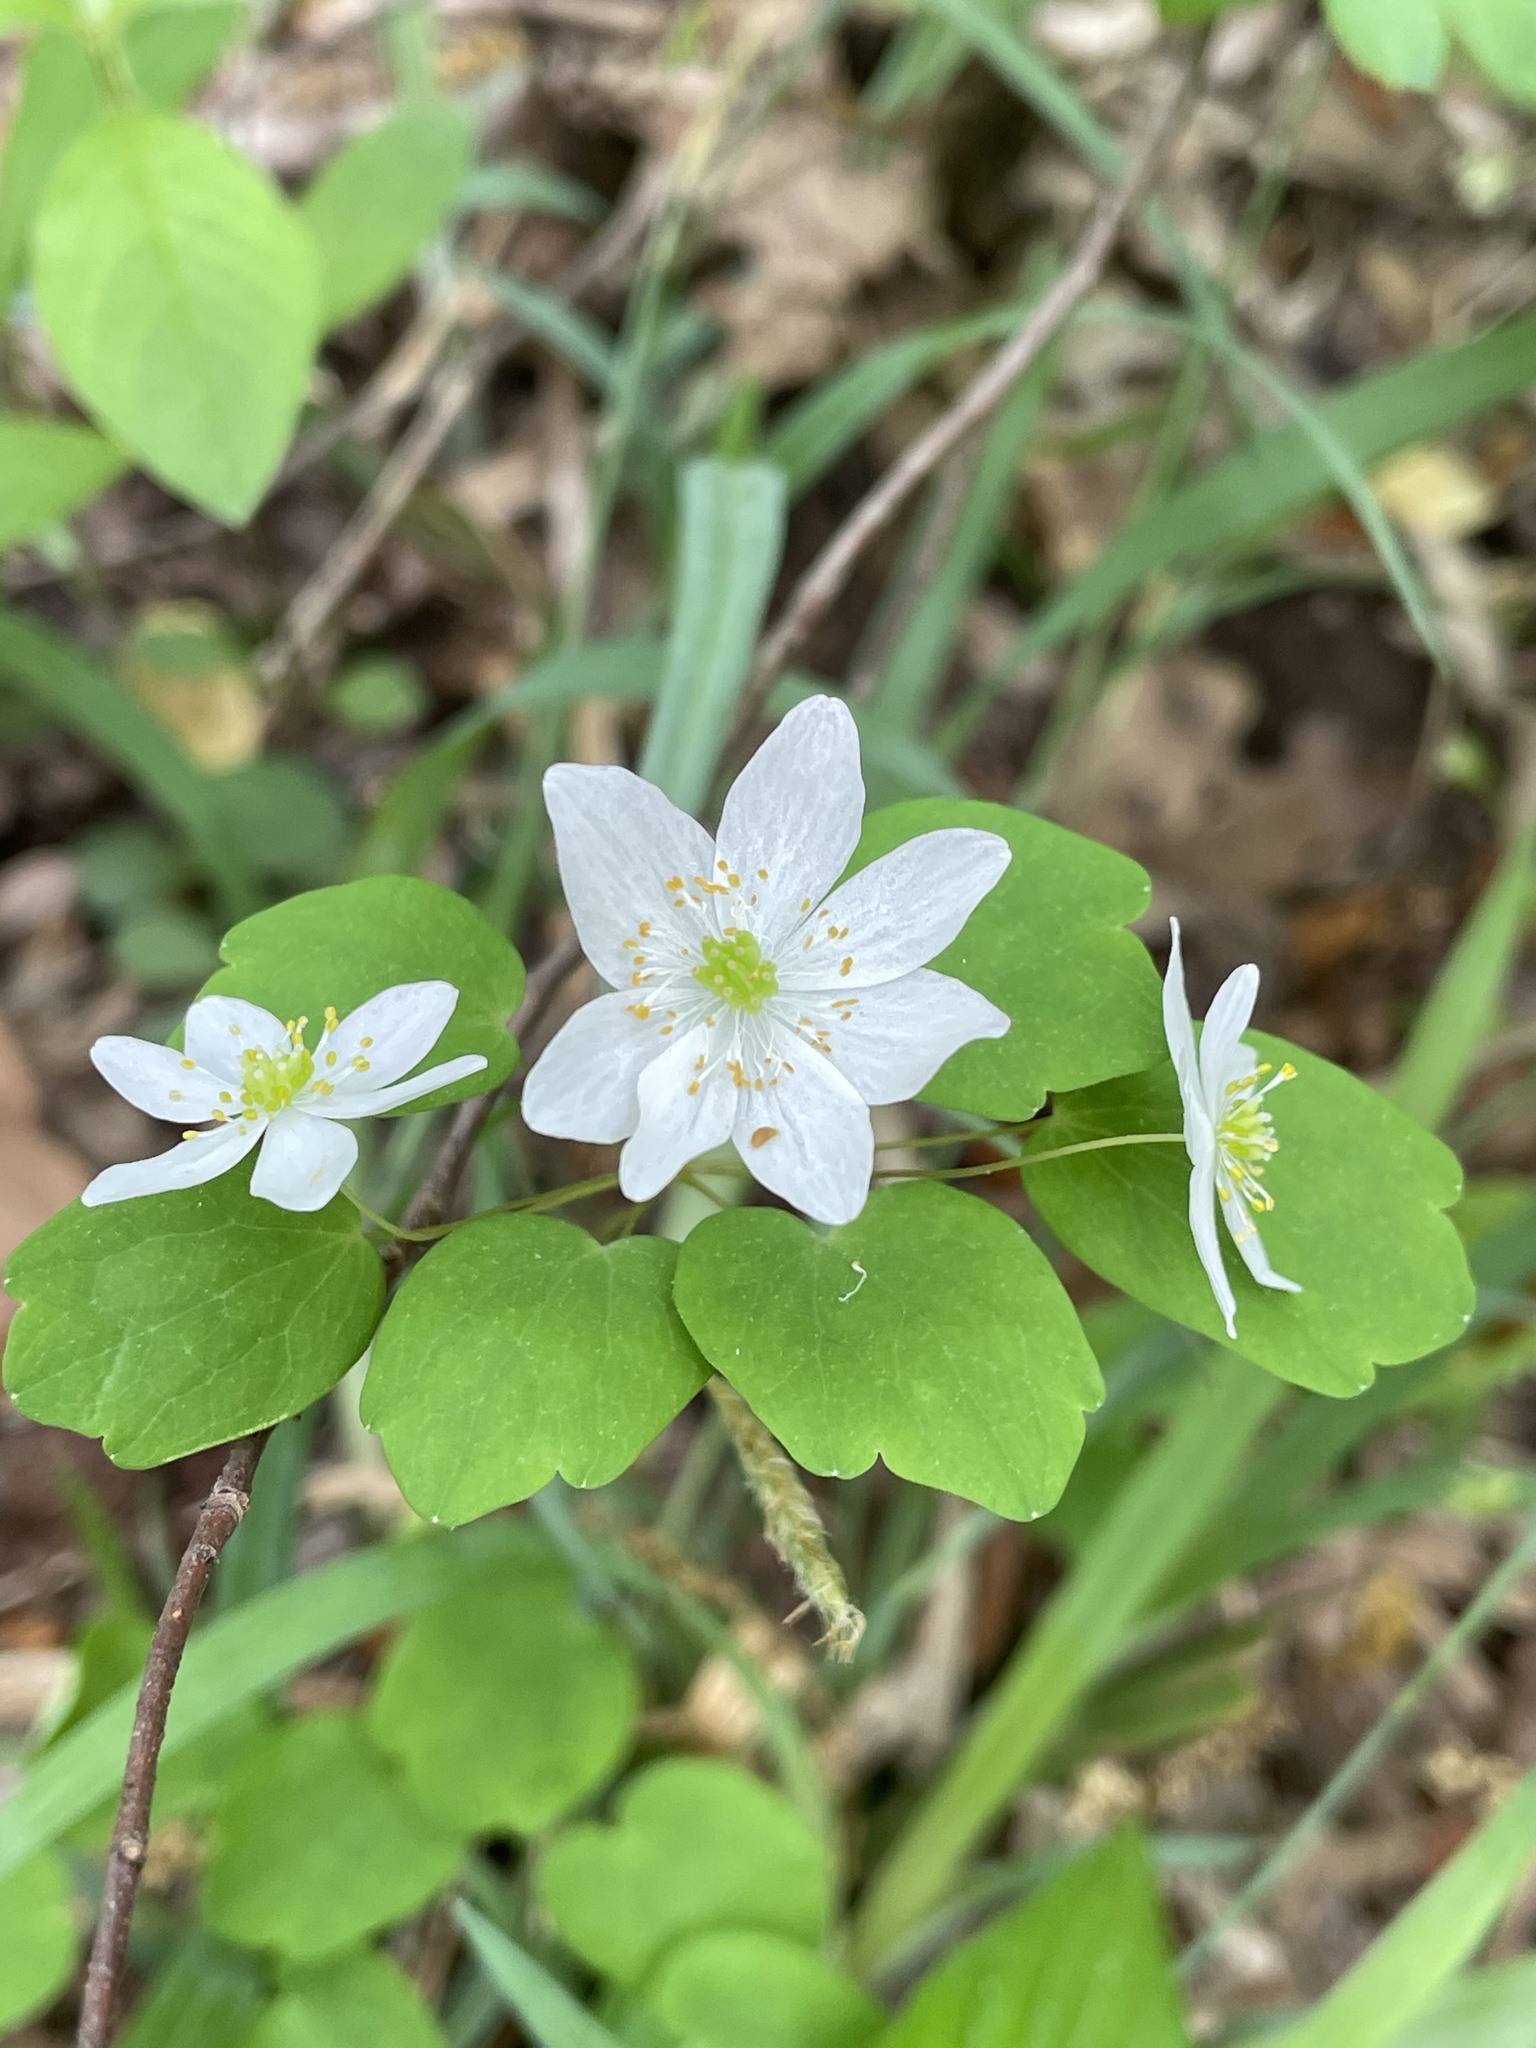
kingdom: Plantae
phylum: Tracheophyta
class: Magnoliopsida
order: Ranunculales
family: Ranunculaceae
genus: Thalictrum
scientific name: Thalictrum thalictroides
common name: Rue-anemone
